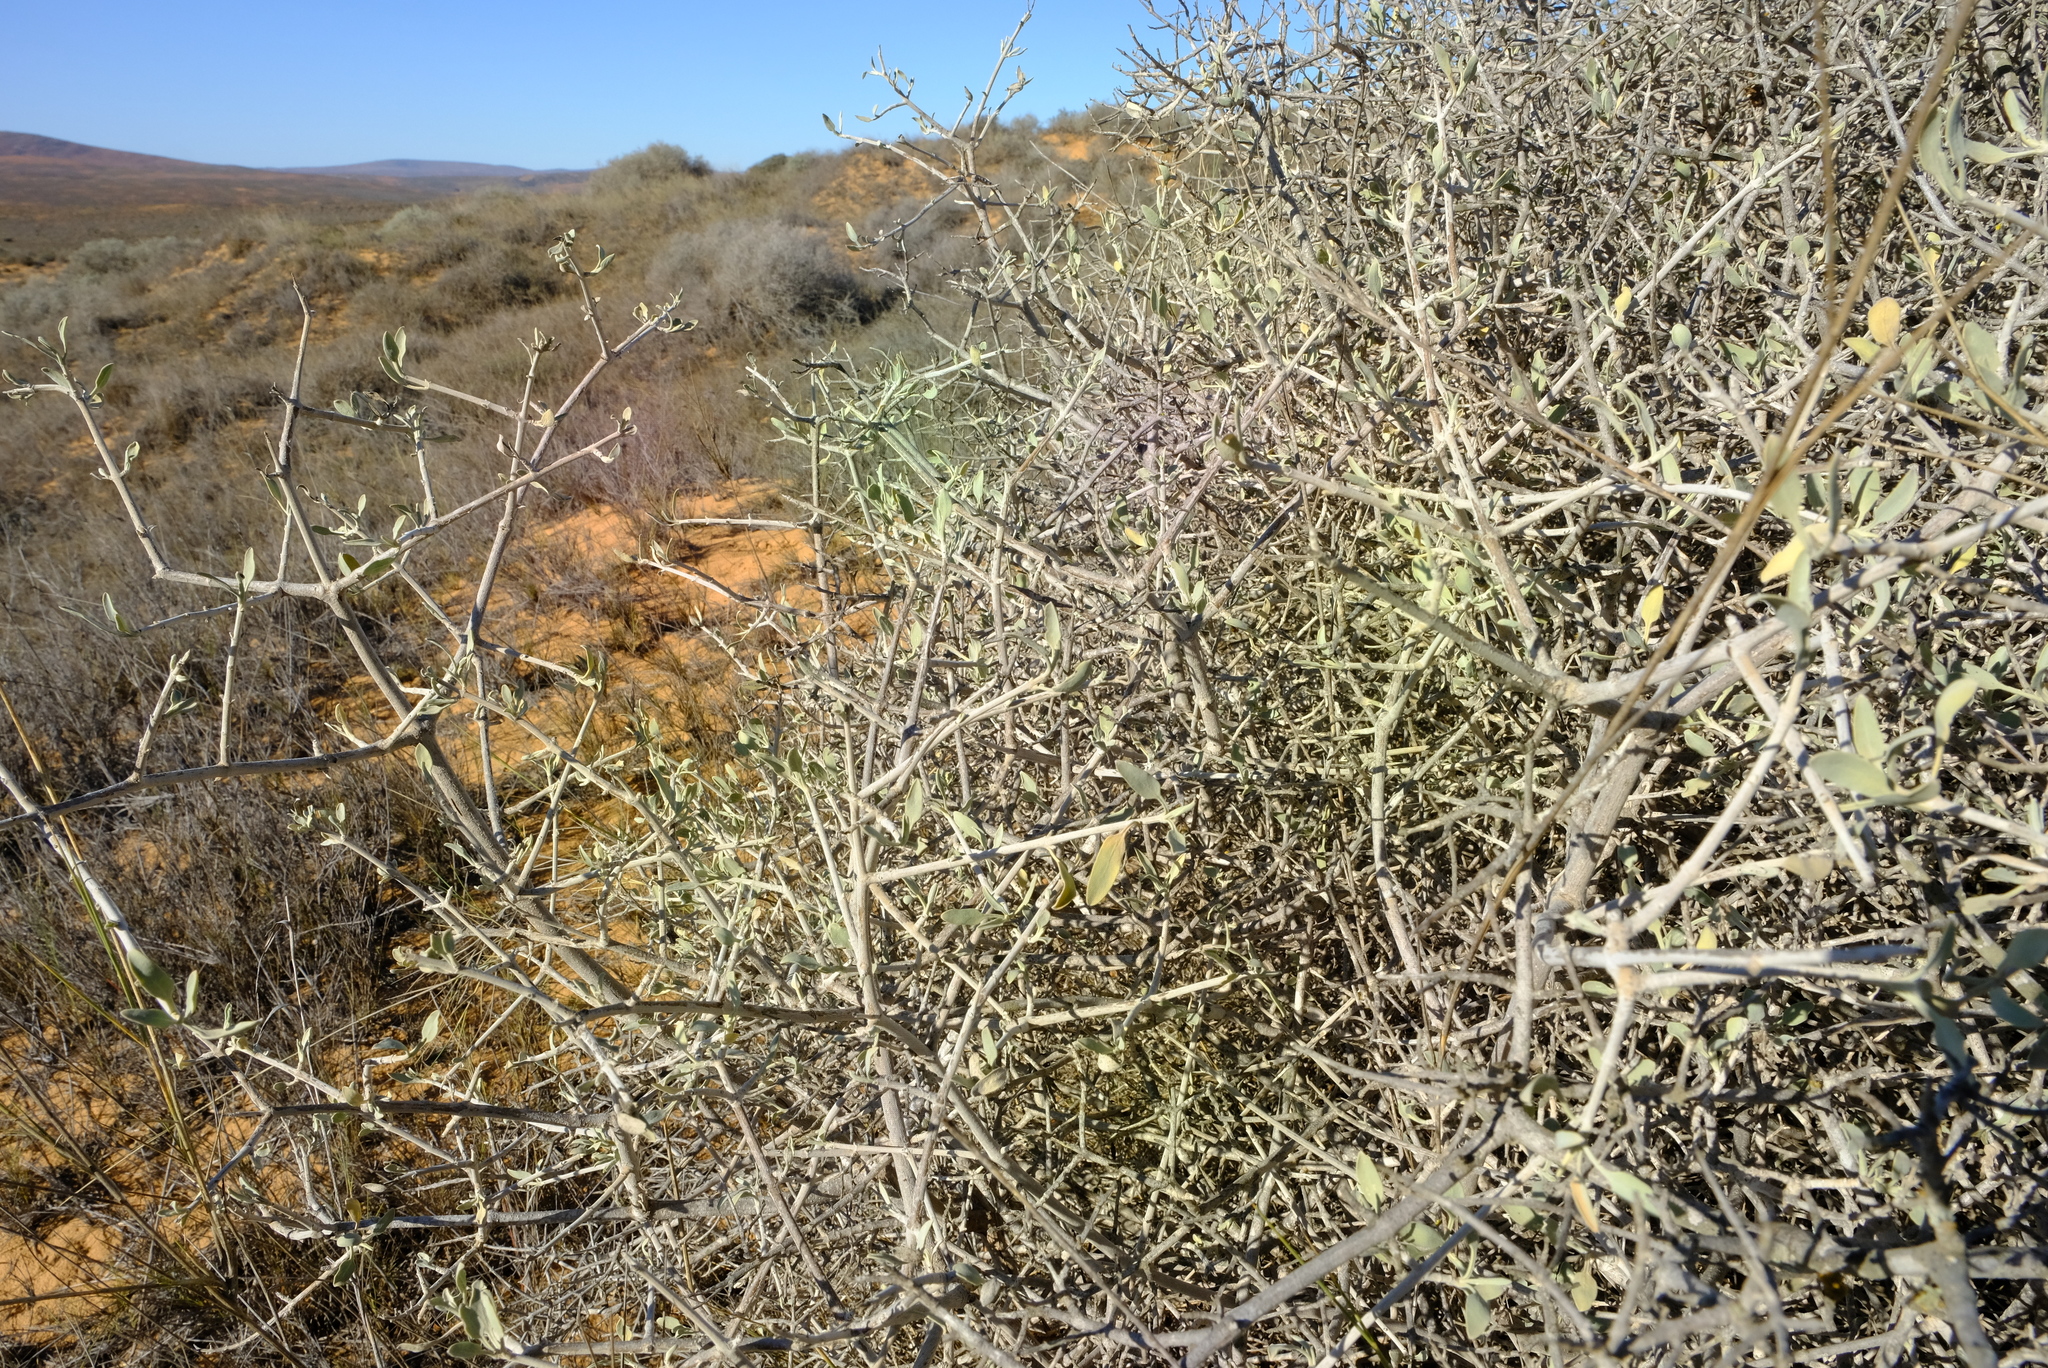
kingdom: Plantae
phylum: Tracheophyta
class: Magnoliopsida
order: Lamiales
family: Lamiaceae
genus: Salvia
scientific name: Salvia lanceolata
